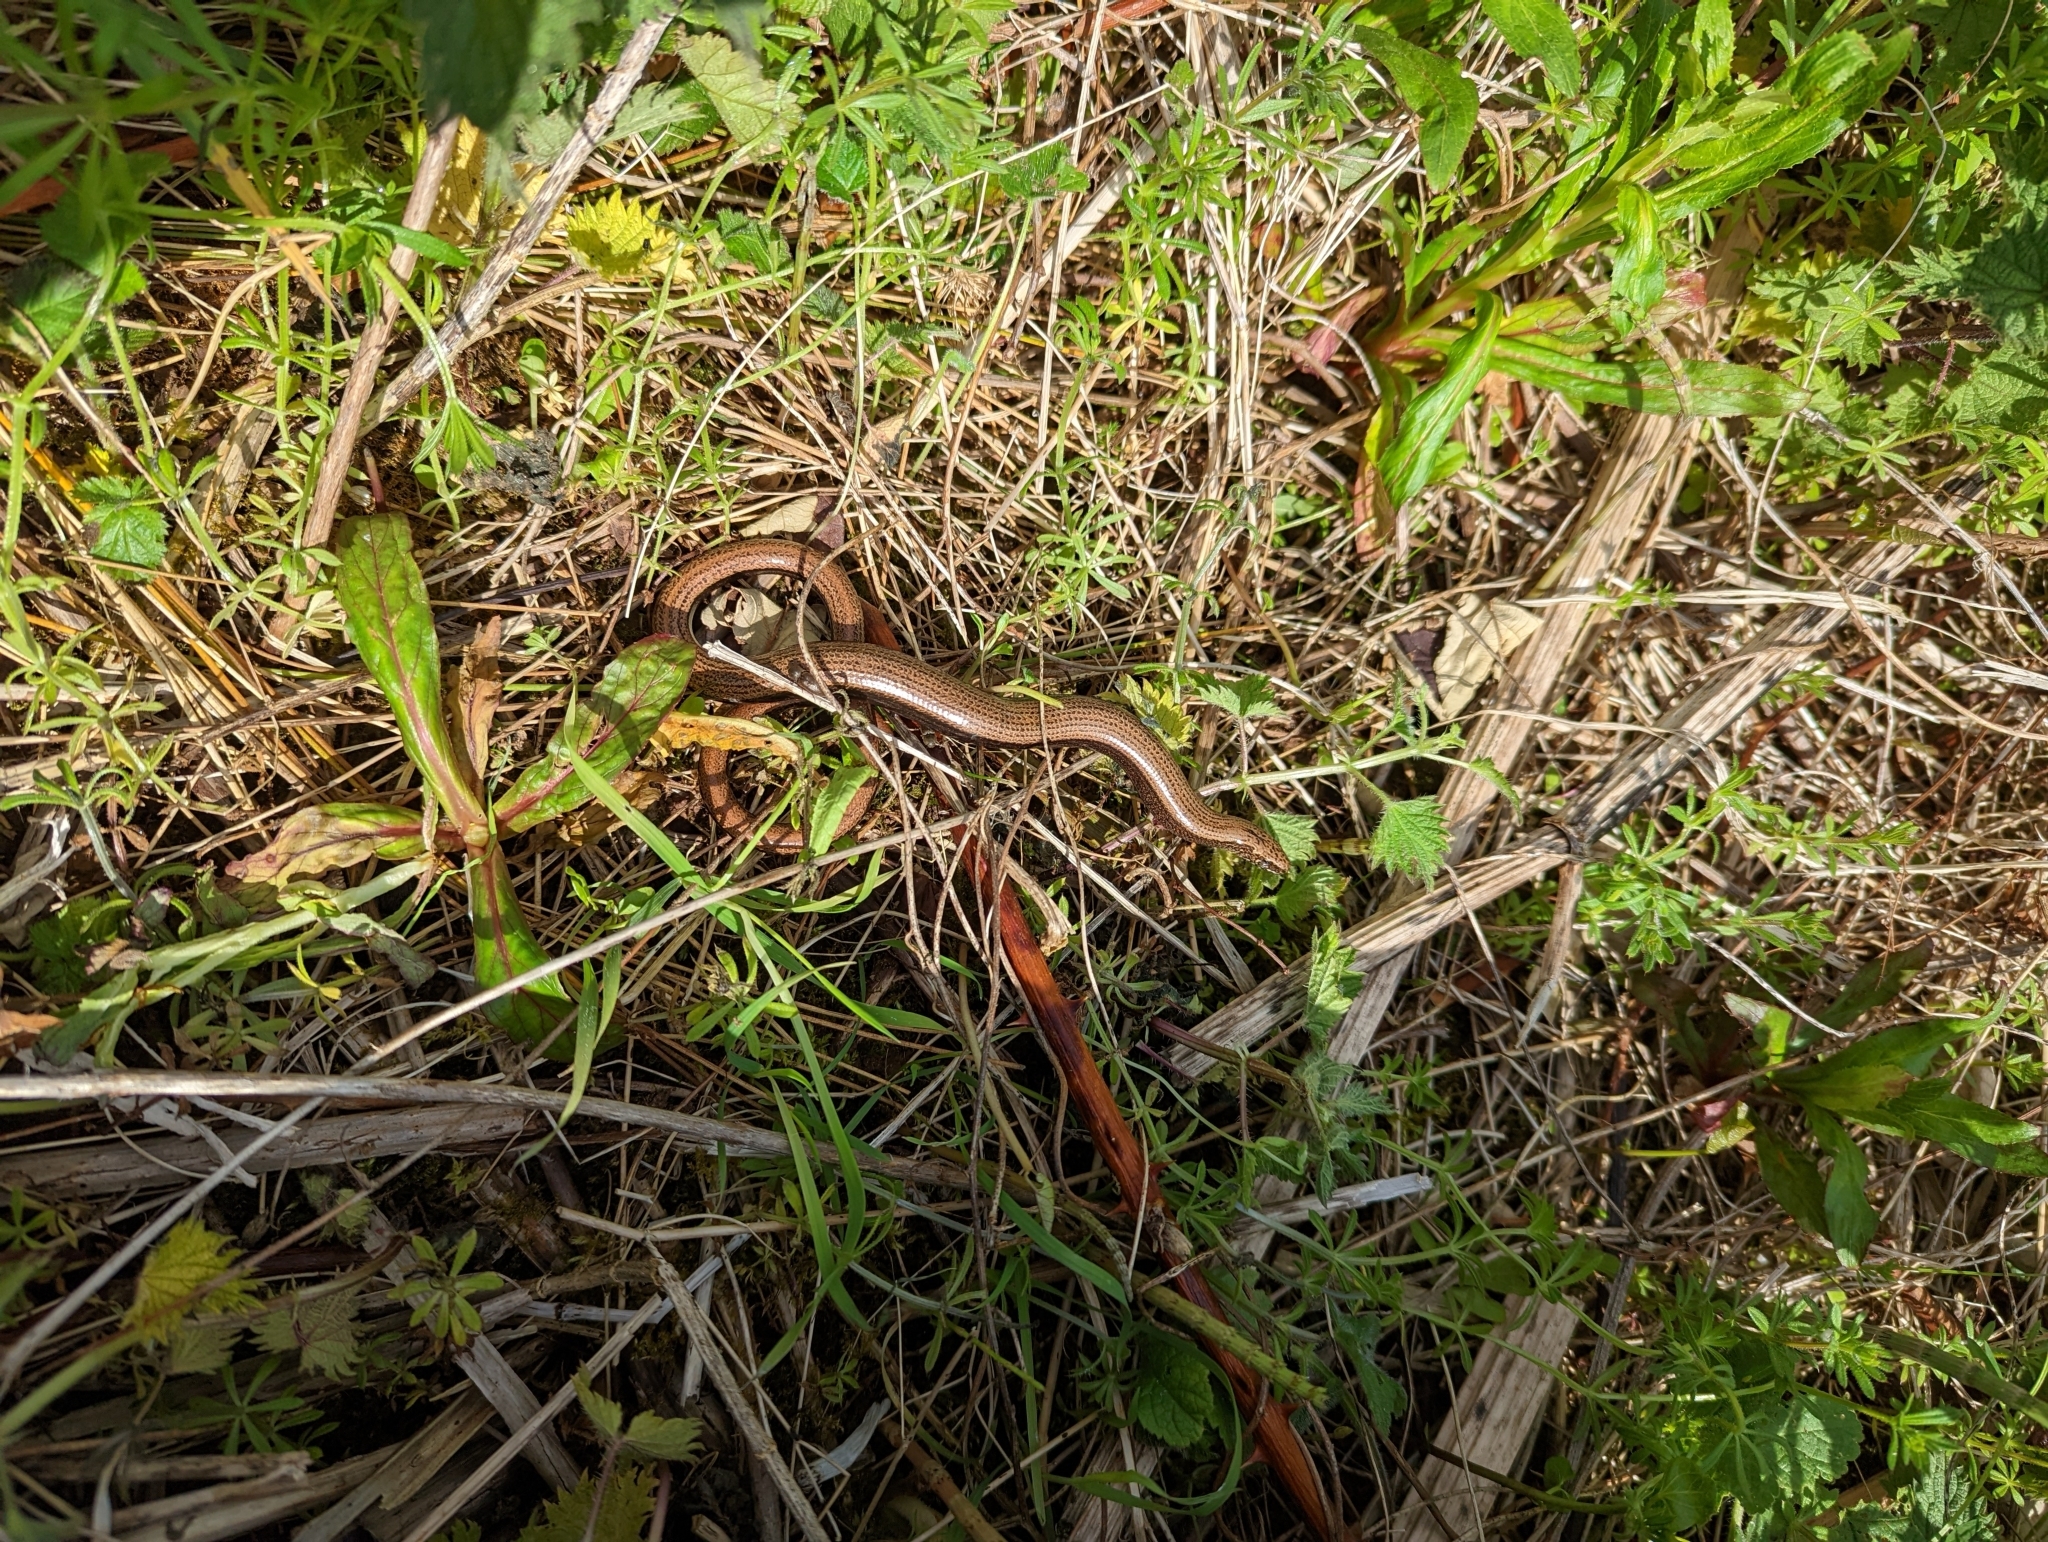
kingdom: Animalia
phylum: Chordata
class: Squamata
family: Anguidae
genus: Anguis
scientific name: Anguis fragilis
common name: Slow worm
